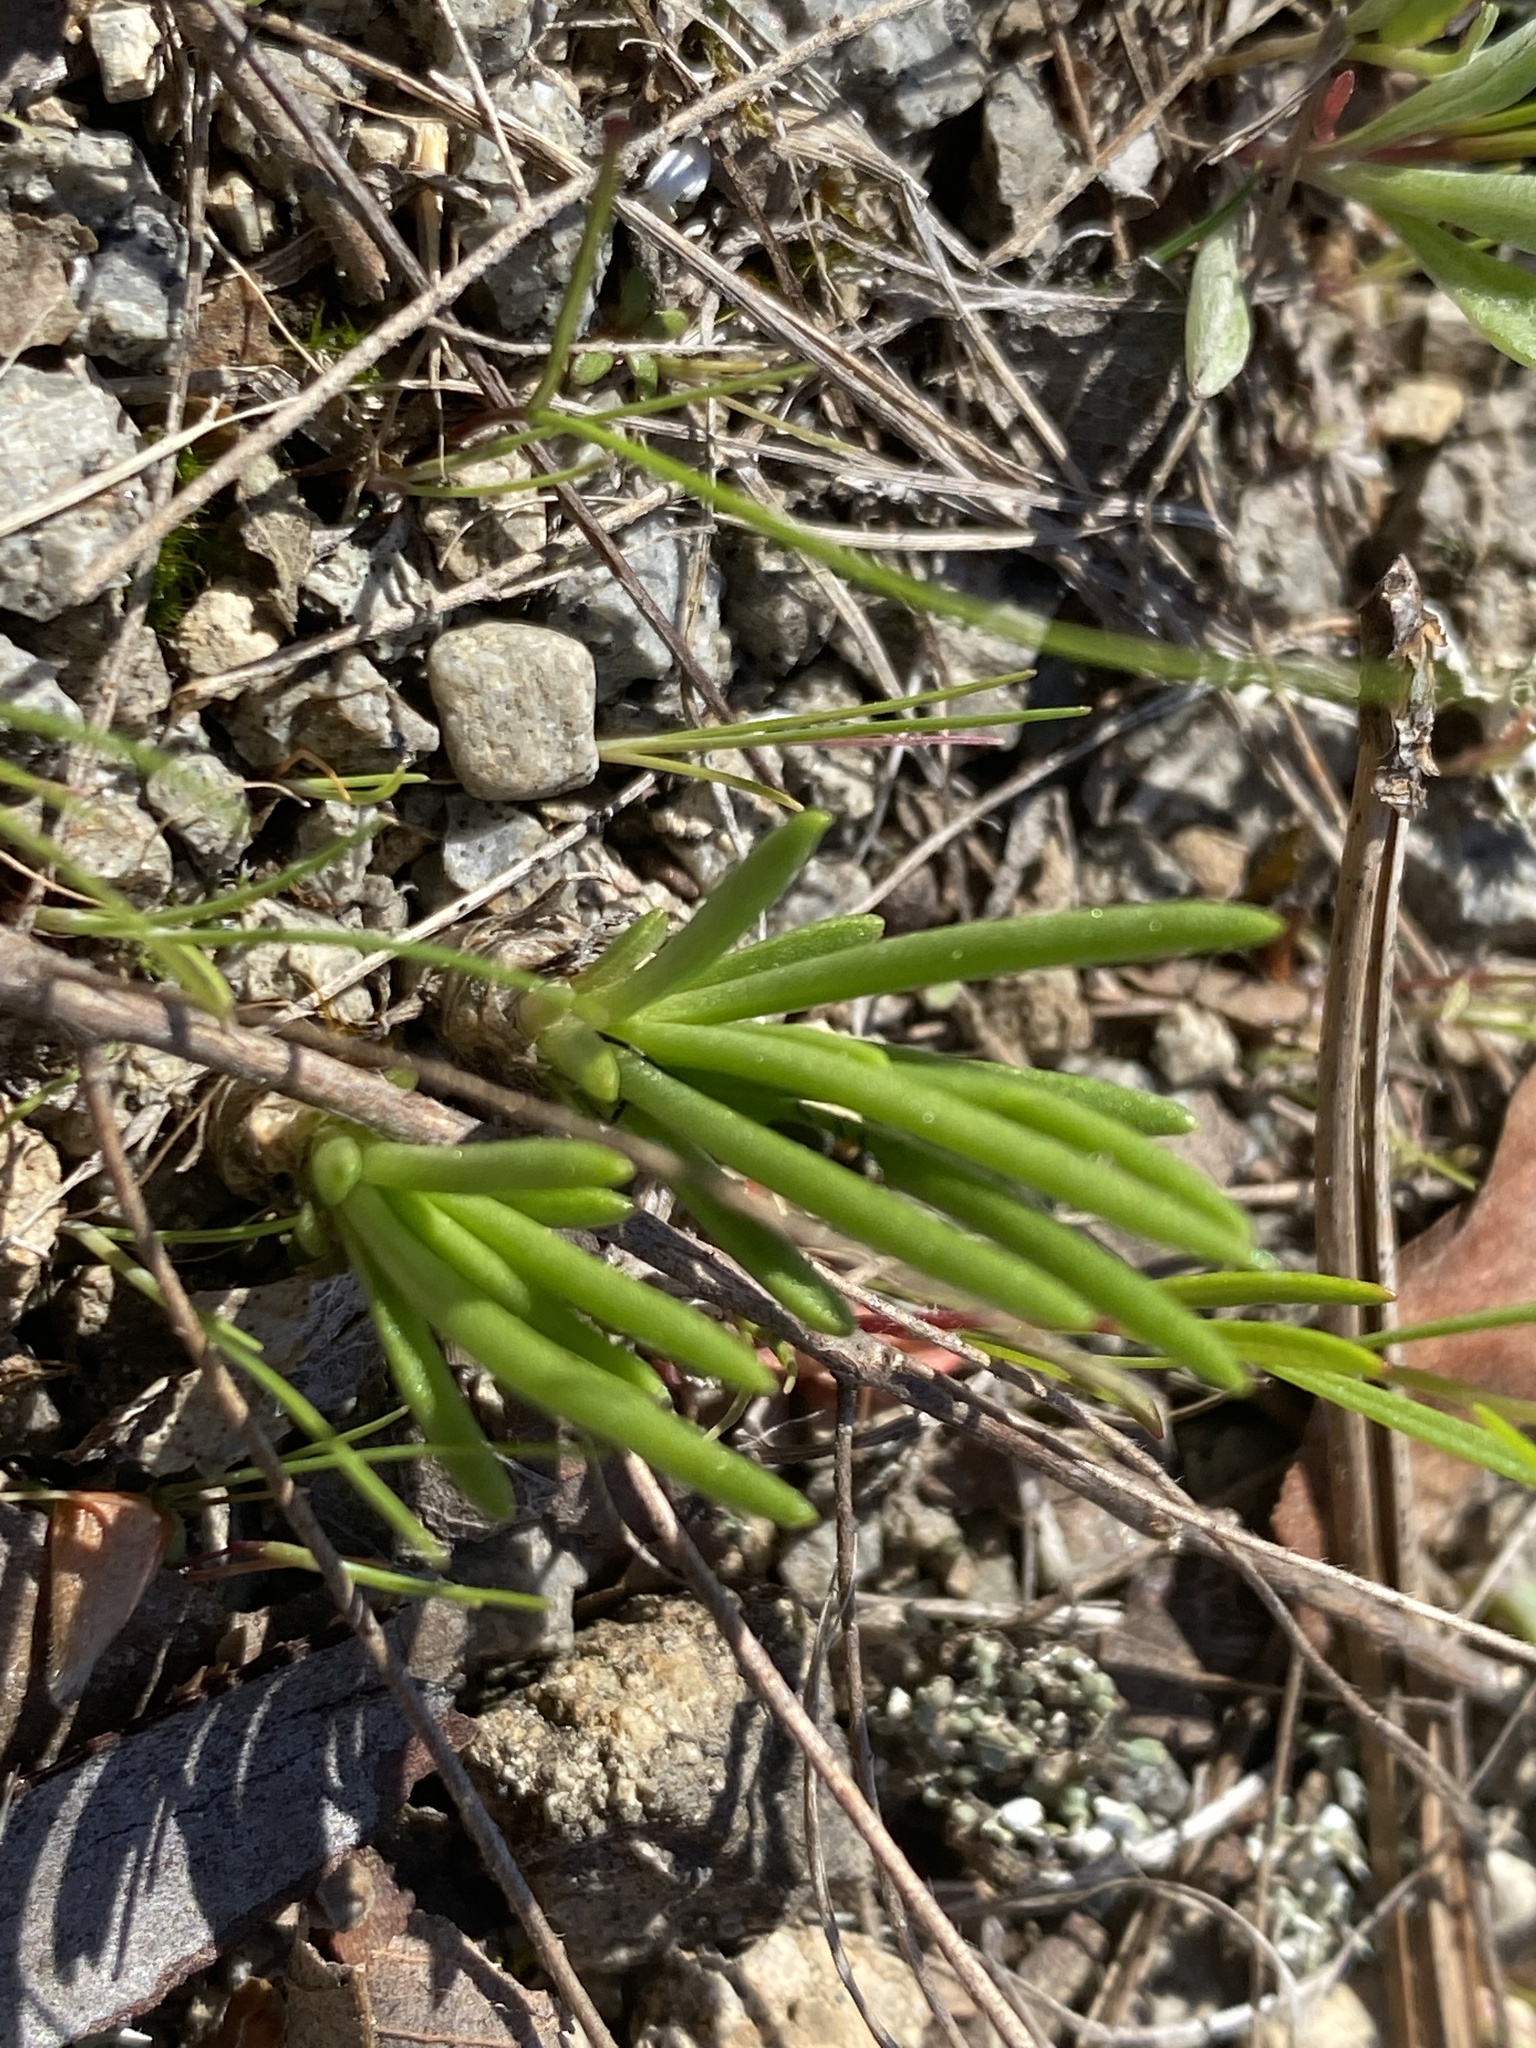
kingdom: Plantae
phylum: Tracheophyta
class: Magnoliopsida
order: Caryophyllales
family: Montiaceae
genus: Phemeranthus
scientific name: Phemeranthus parviflorus
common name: Sunbright
